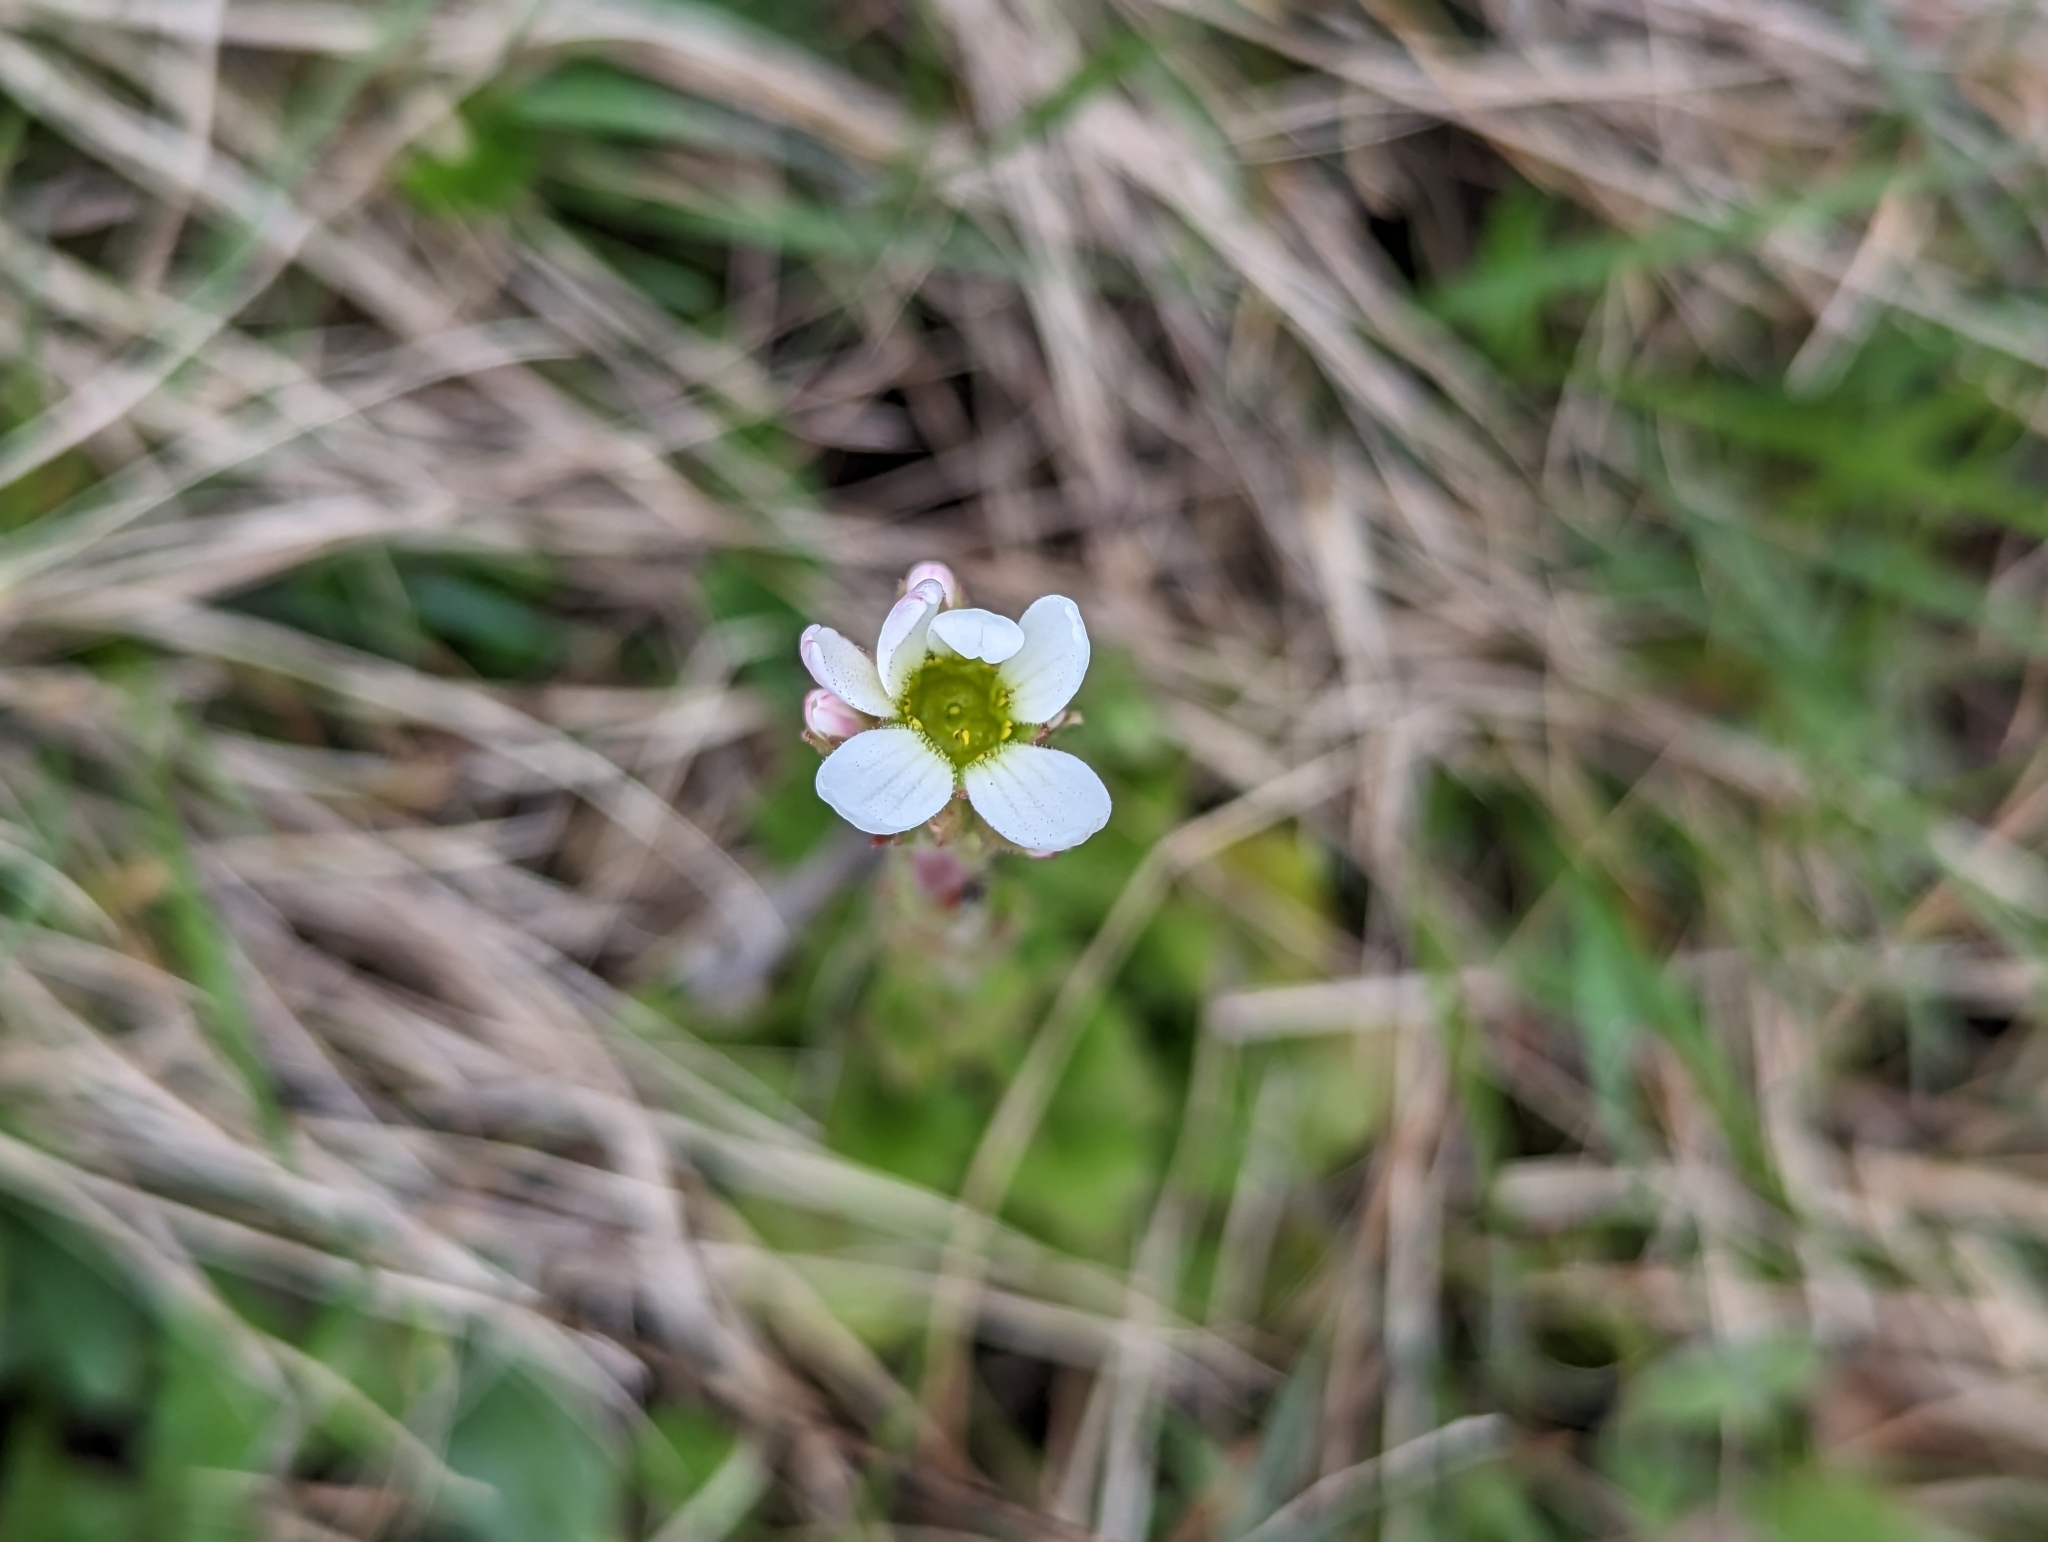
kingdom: Plantae
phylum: Tracheophyta
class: Magnoliopsida
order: Saxifragales
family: Saxifragaceae
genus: Saxifraga
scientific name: Saxifraga bulbifera
